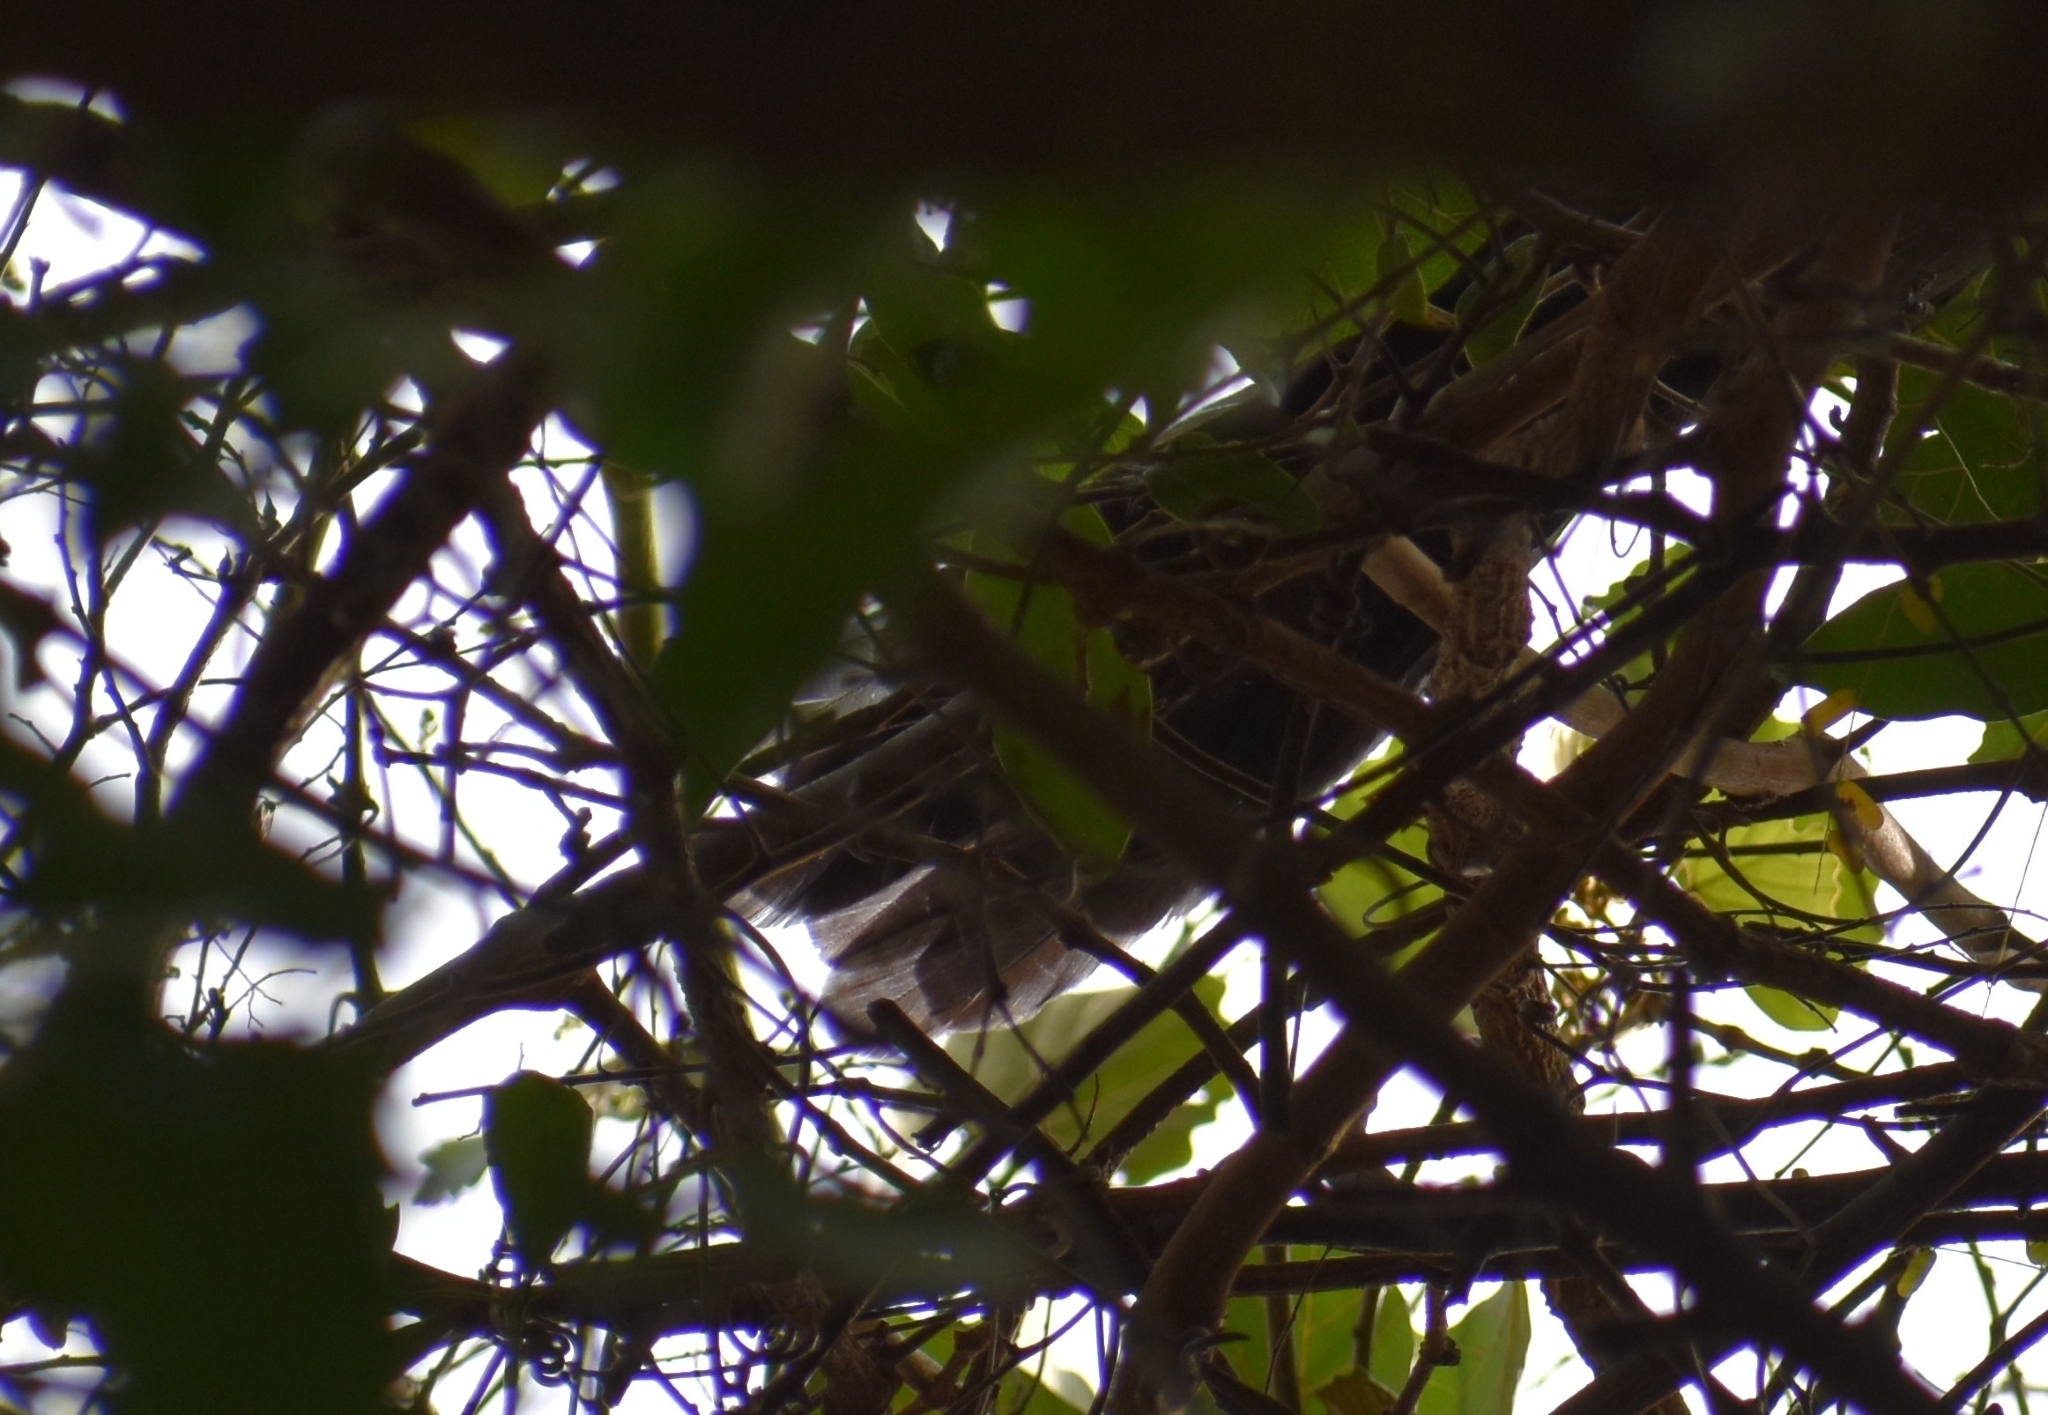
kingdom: Animalia
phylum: Chordata
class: Aves
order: Cuculiformes
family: Cuculidae
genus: Ceuthmochares
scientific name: Ceuthmochares australis
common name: Green malkoha
